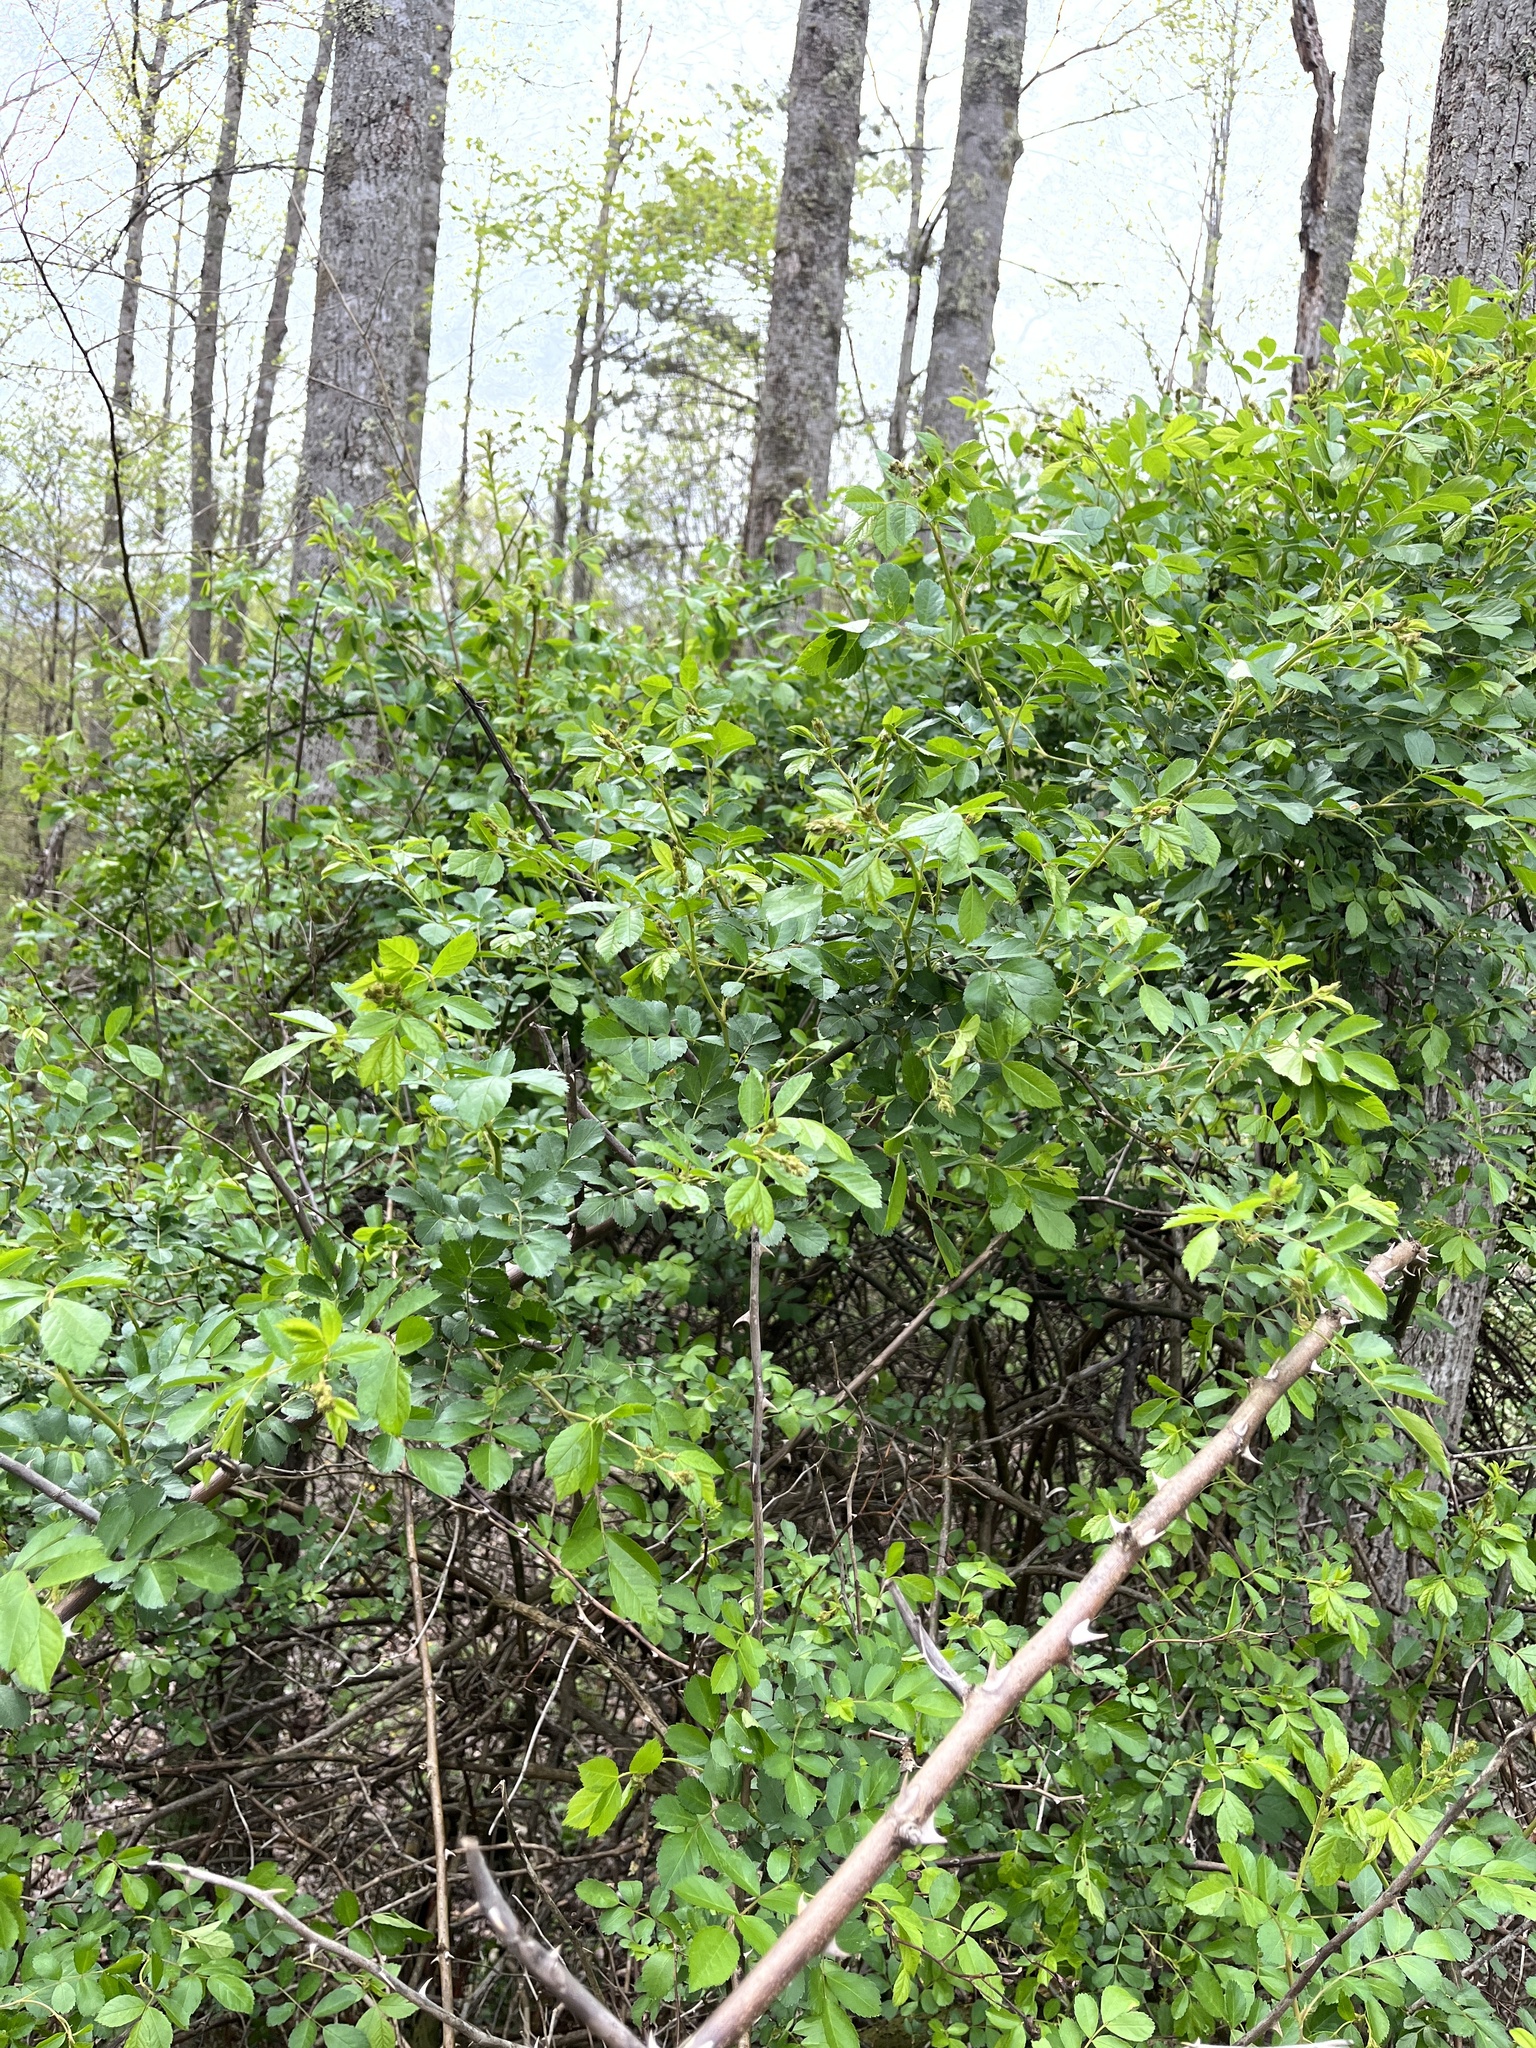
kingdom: Plantae
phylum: Tracheophyta
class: Magnoliopsida
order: Rosales
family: Rosaceae
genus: Rosa
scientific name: Rosa multiflora
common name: Multiflora rose
